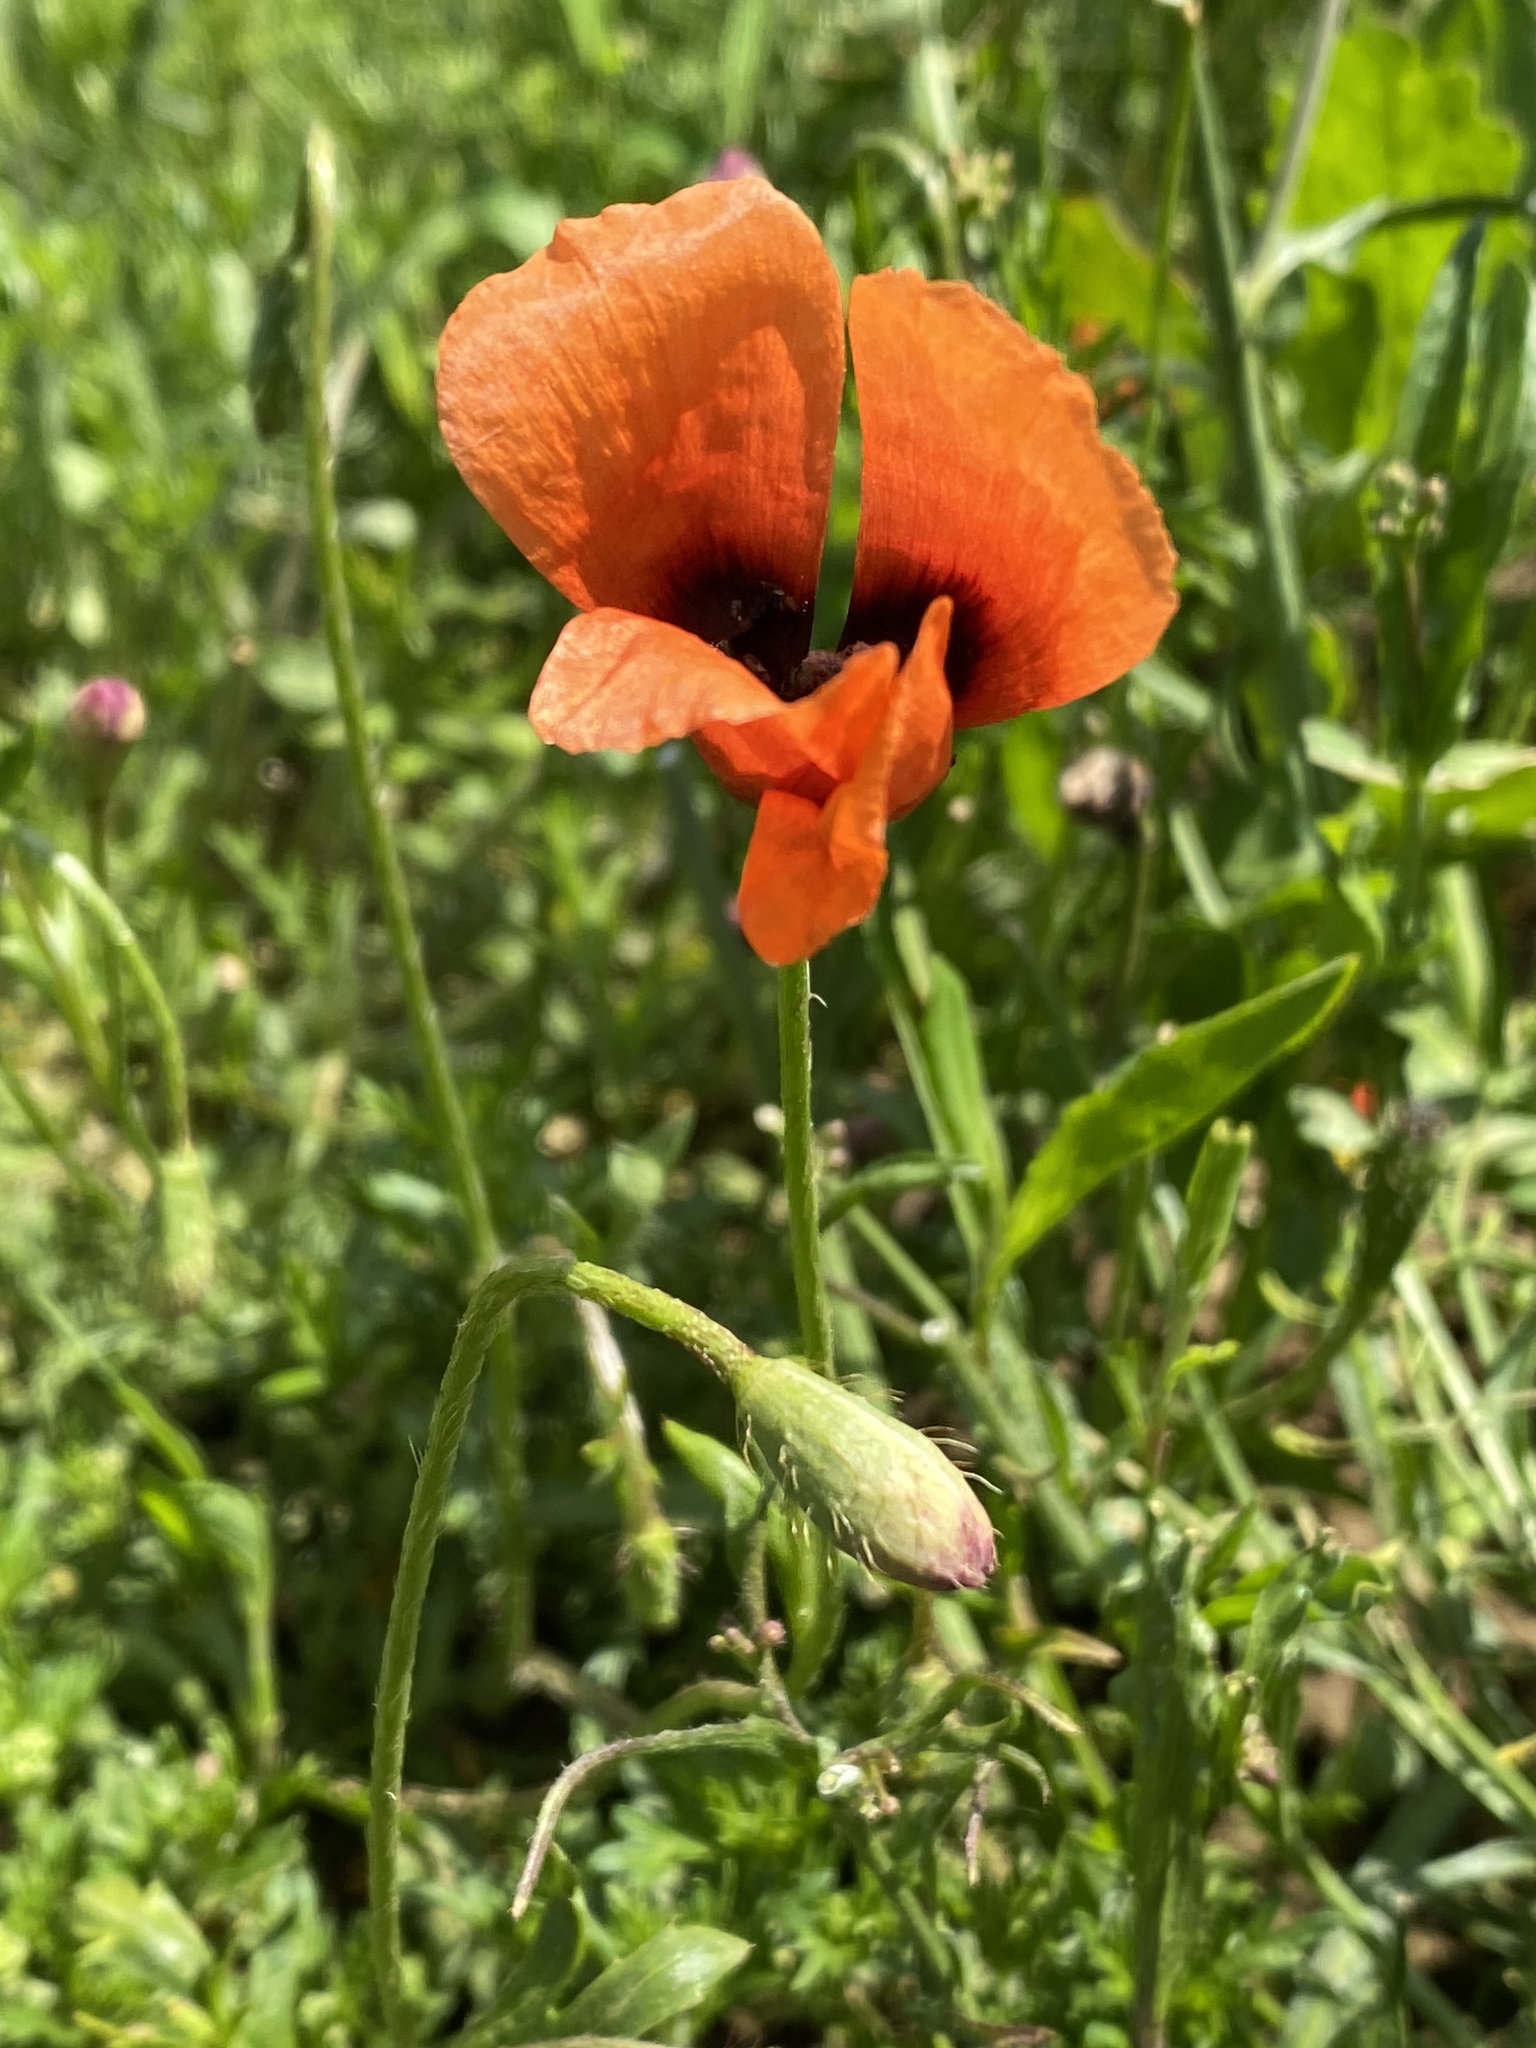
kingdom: Plantae
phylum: Tracheophyta
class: Magnoliopsida
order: Ranunculales
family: Papaveraceae
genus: Papaver
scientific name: Papaver dubium
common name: Long-headed poppy
